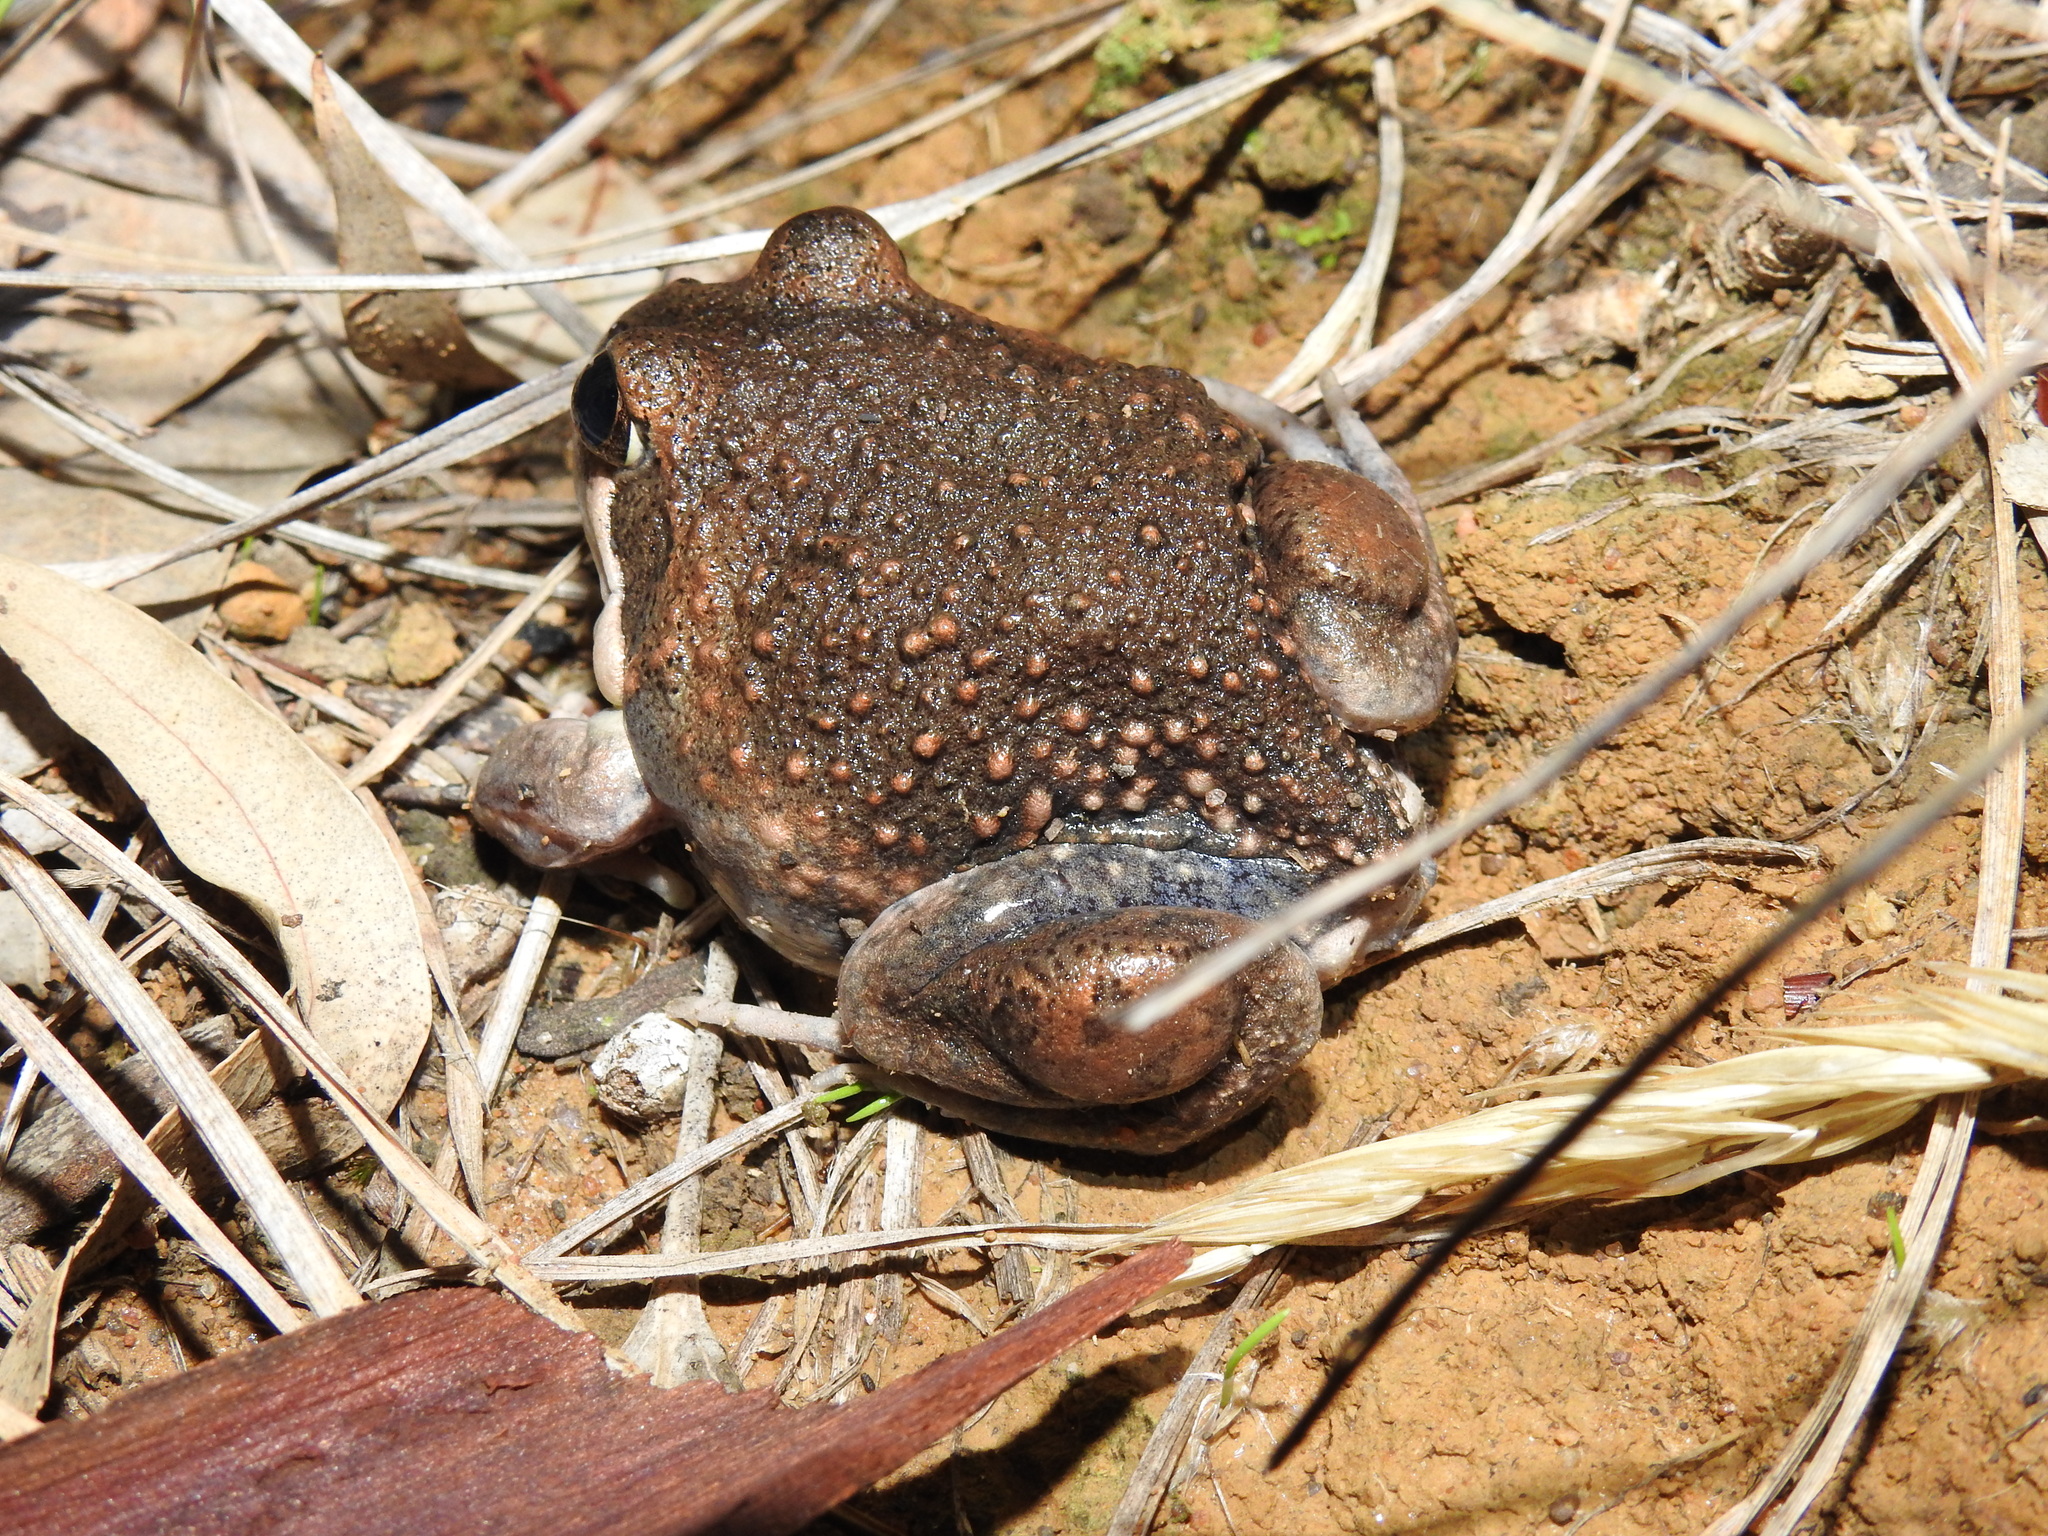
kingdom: Animalia
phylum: Chordata
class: Amphibia
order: Anura
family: Limnodynastidae
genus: Limnodynastes
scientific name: Limnodynastes dumerilii
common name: Banjo frog
